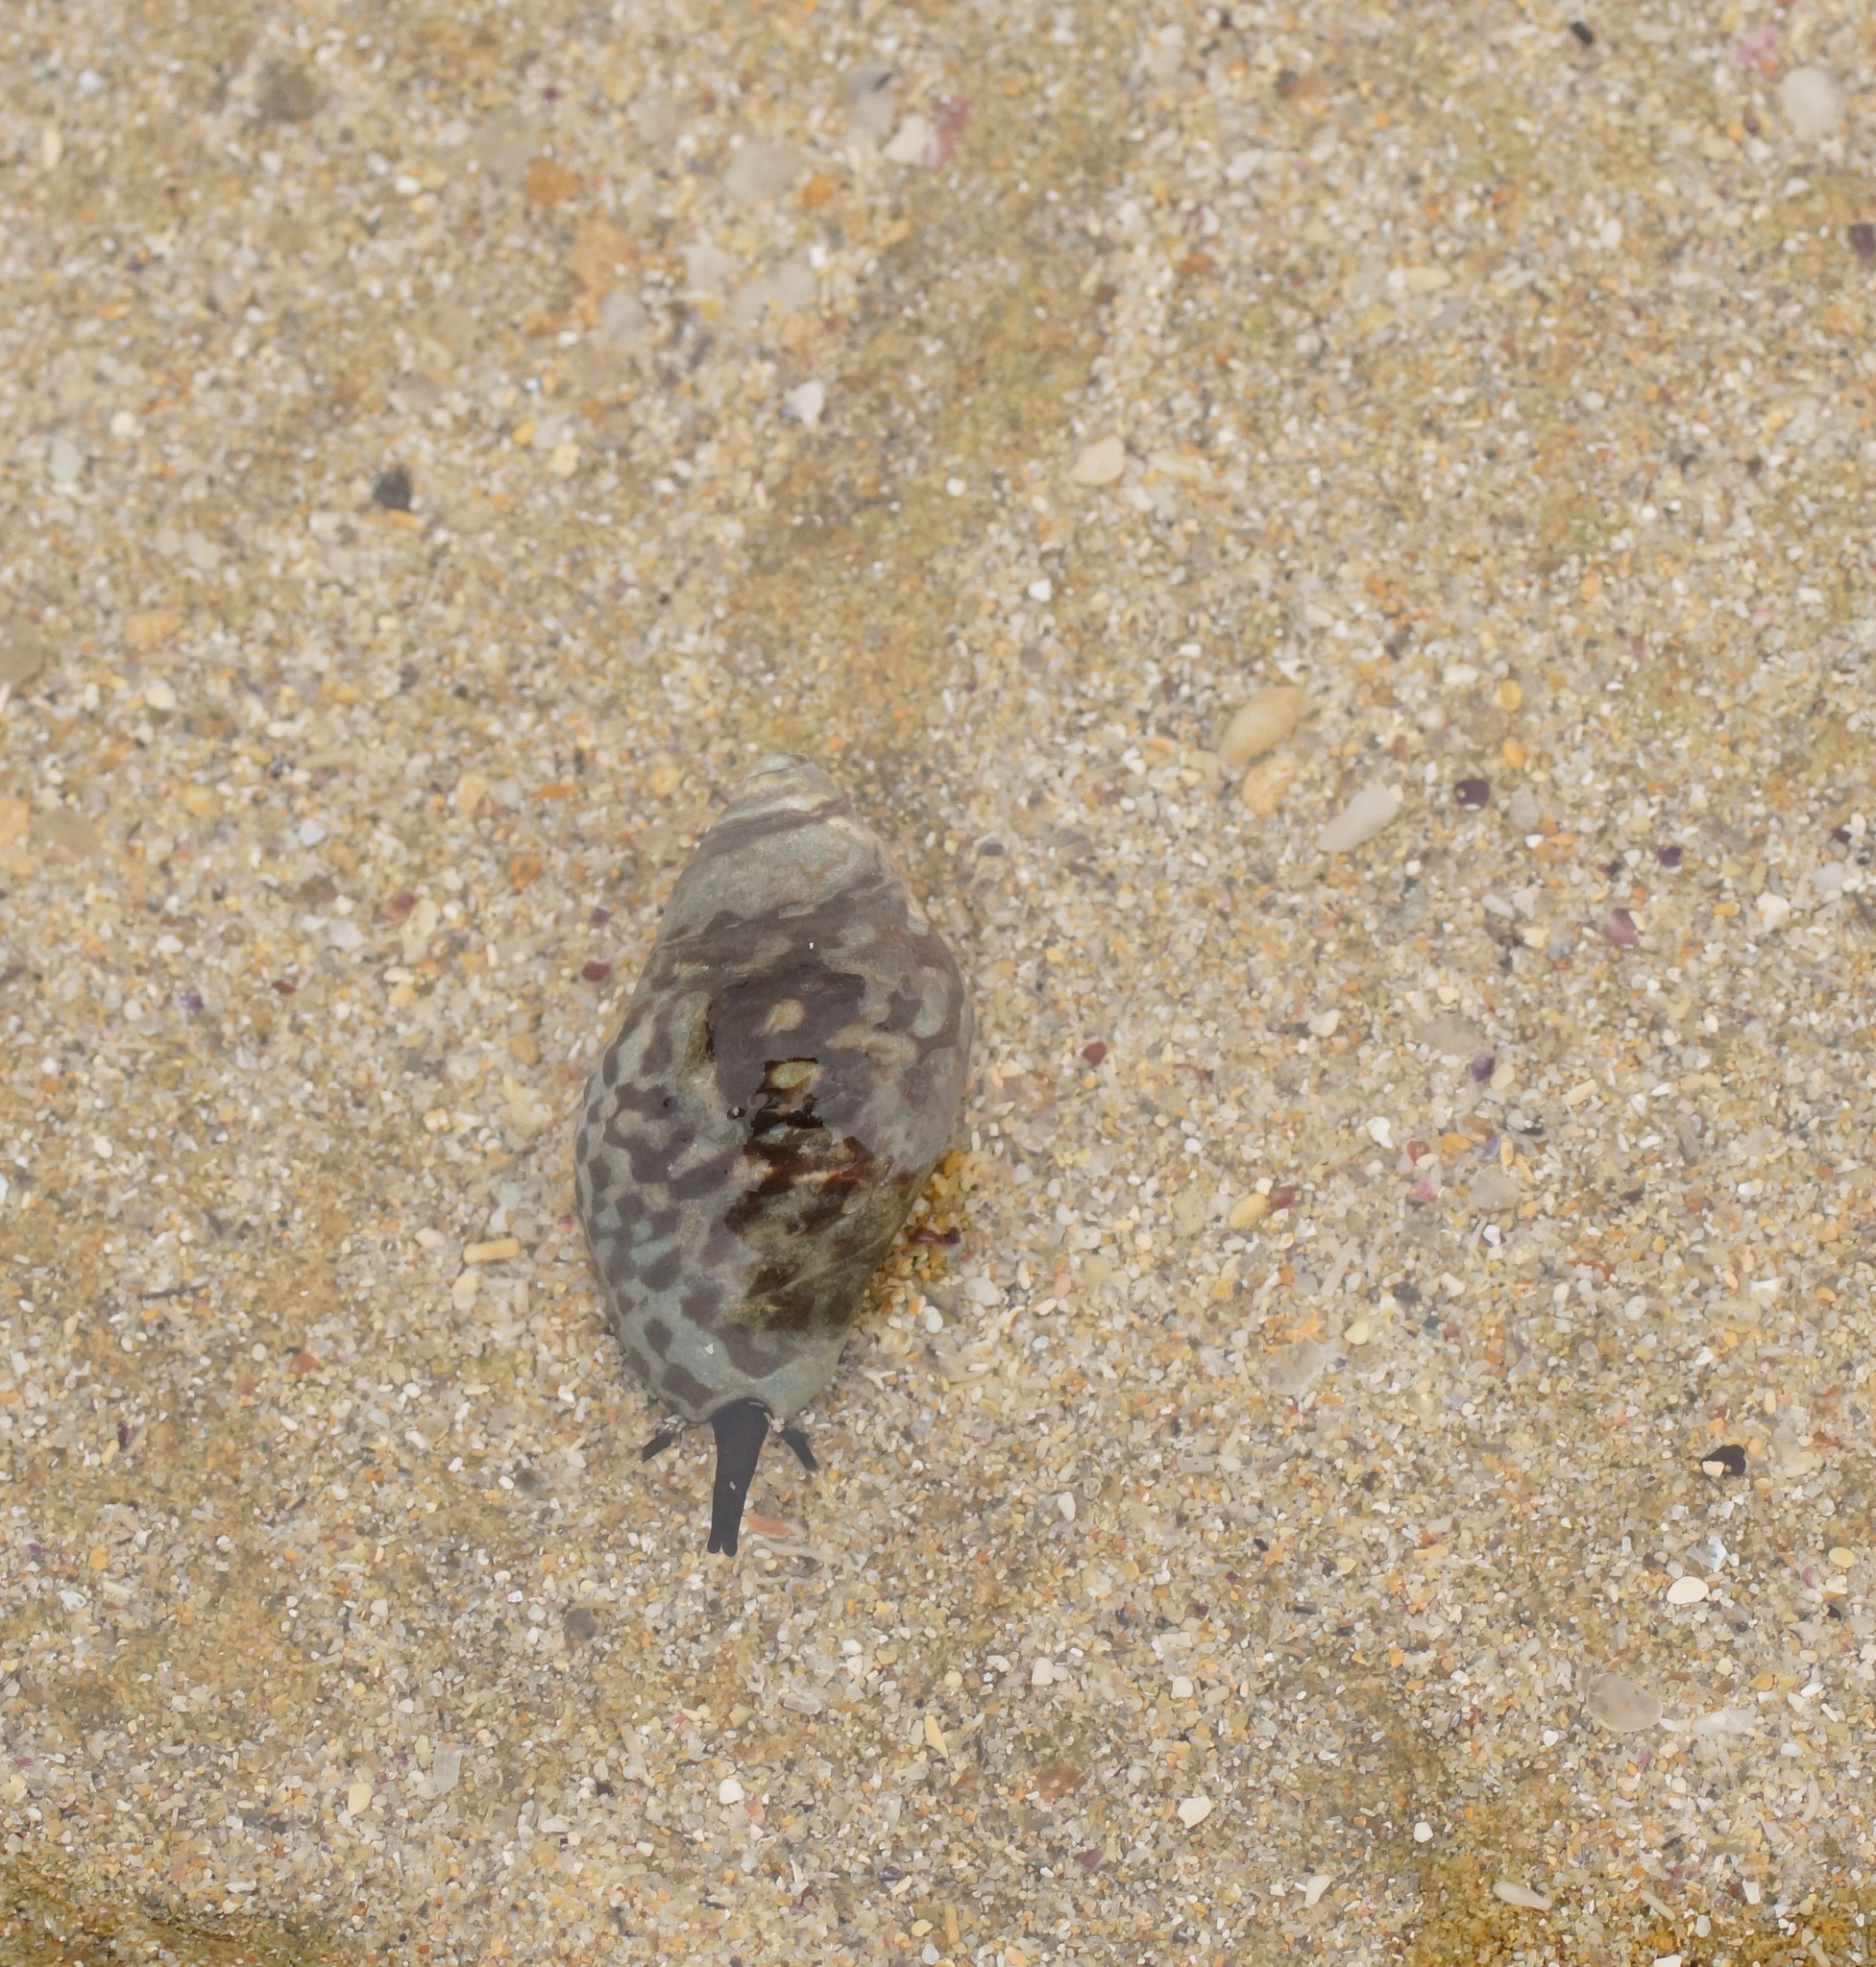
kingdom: Animalia
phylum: Mollusca
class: Gastropoda
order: Neogastropoda
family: Cominellidae
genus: Cominella
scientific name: Cominella lineolata
